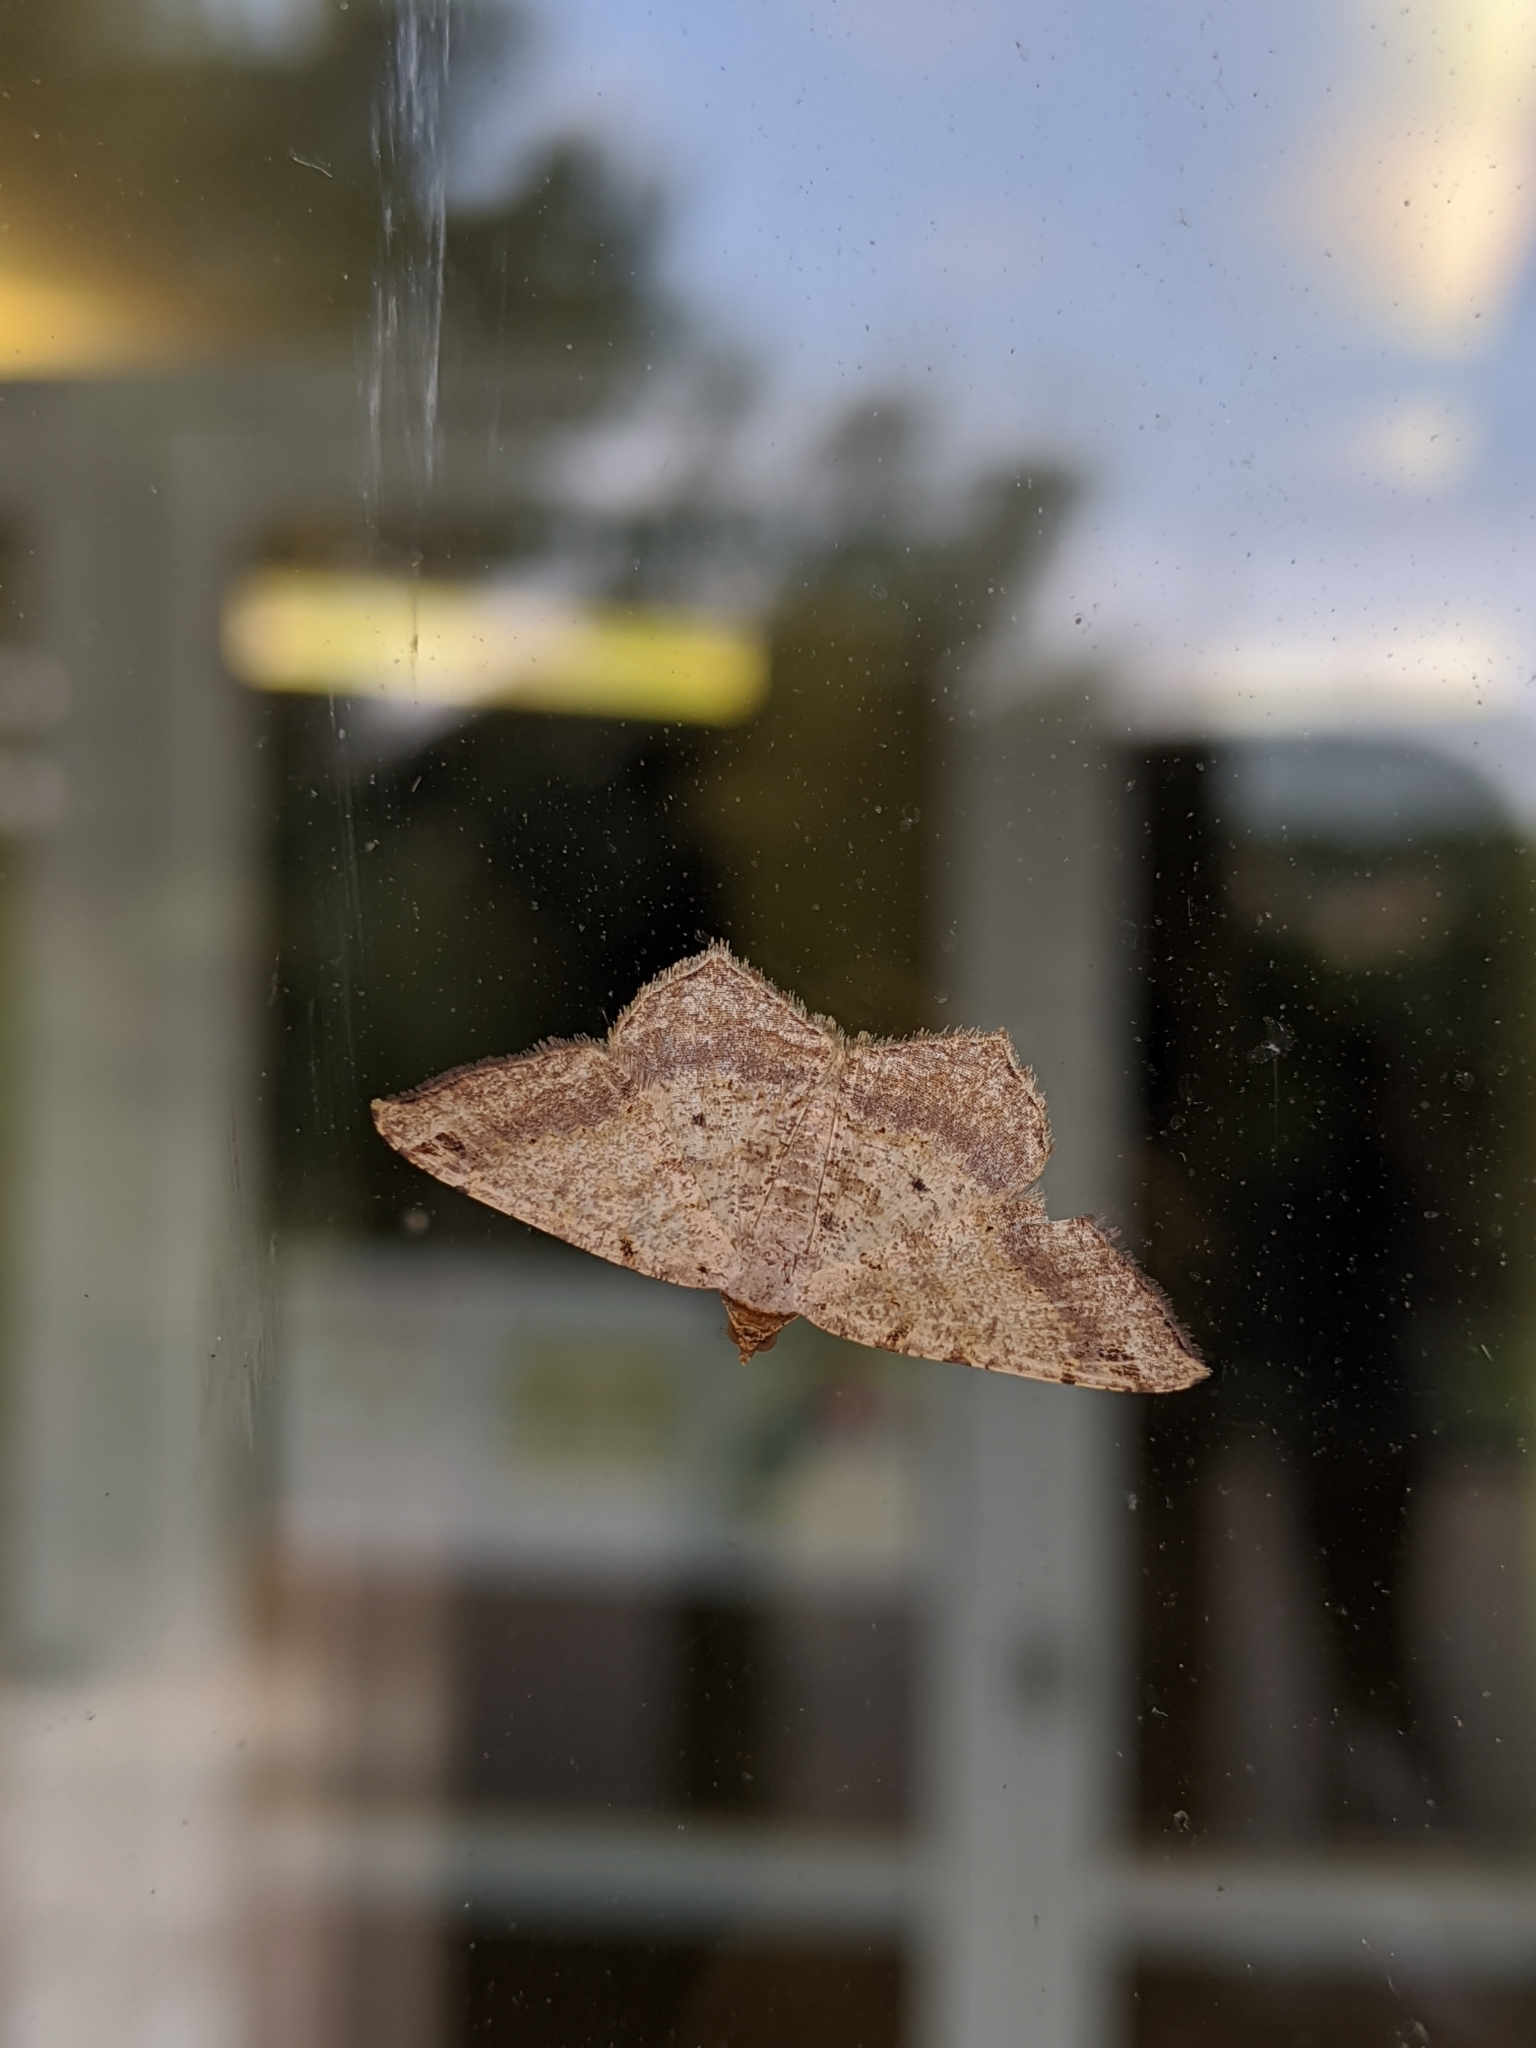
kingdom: Animalia
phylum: Arthropoda
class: Insecta
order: Lepidoptera
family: Geometridae
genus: Macaria
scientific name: Macaria abydata
